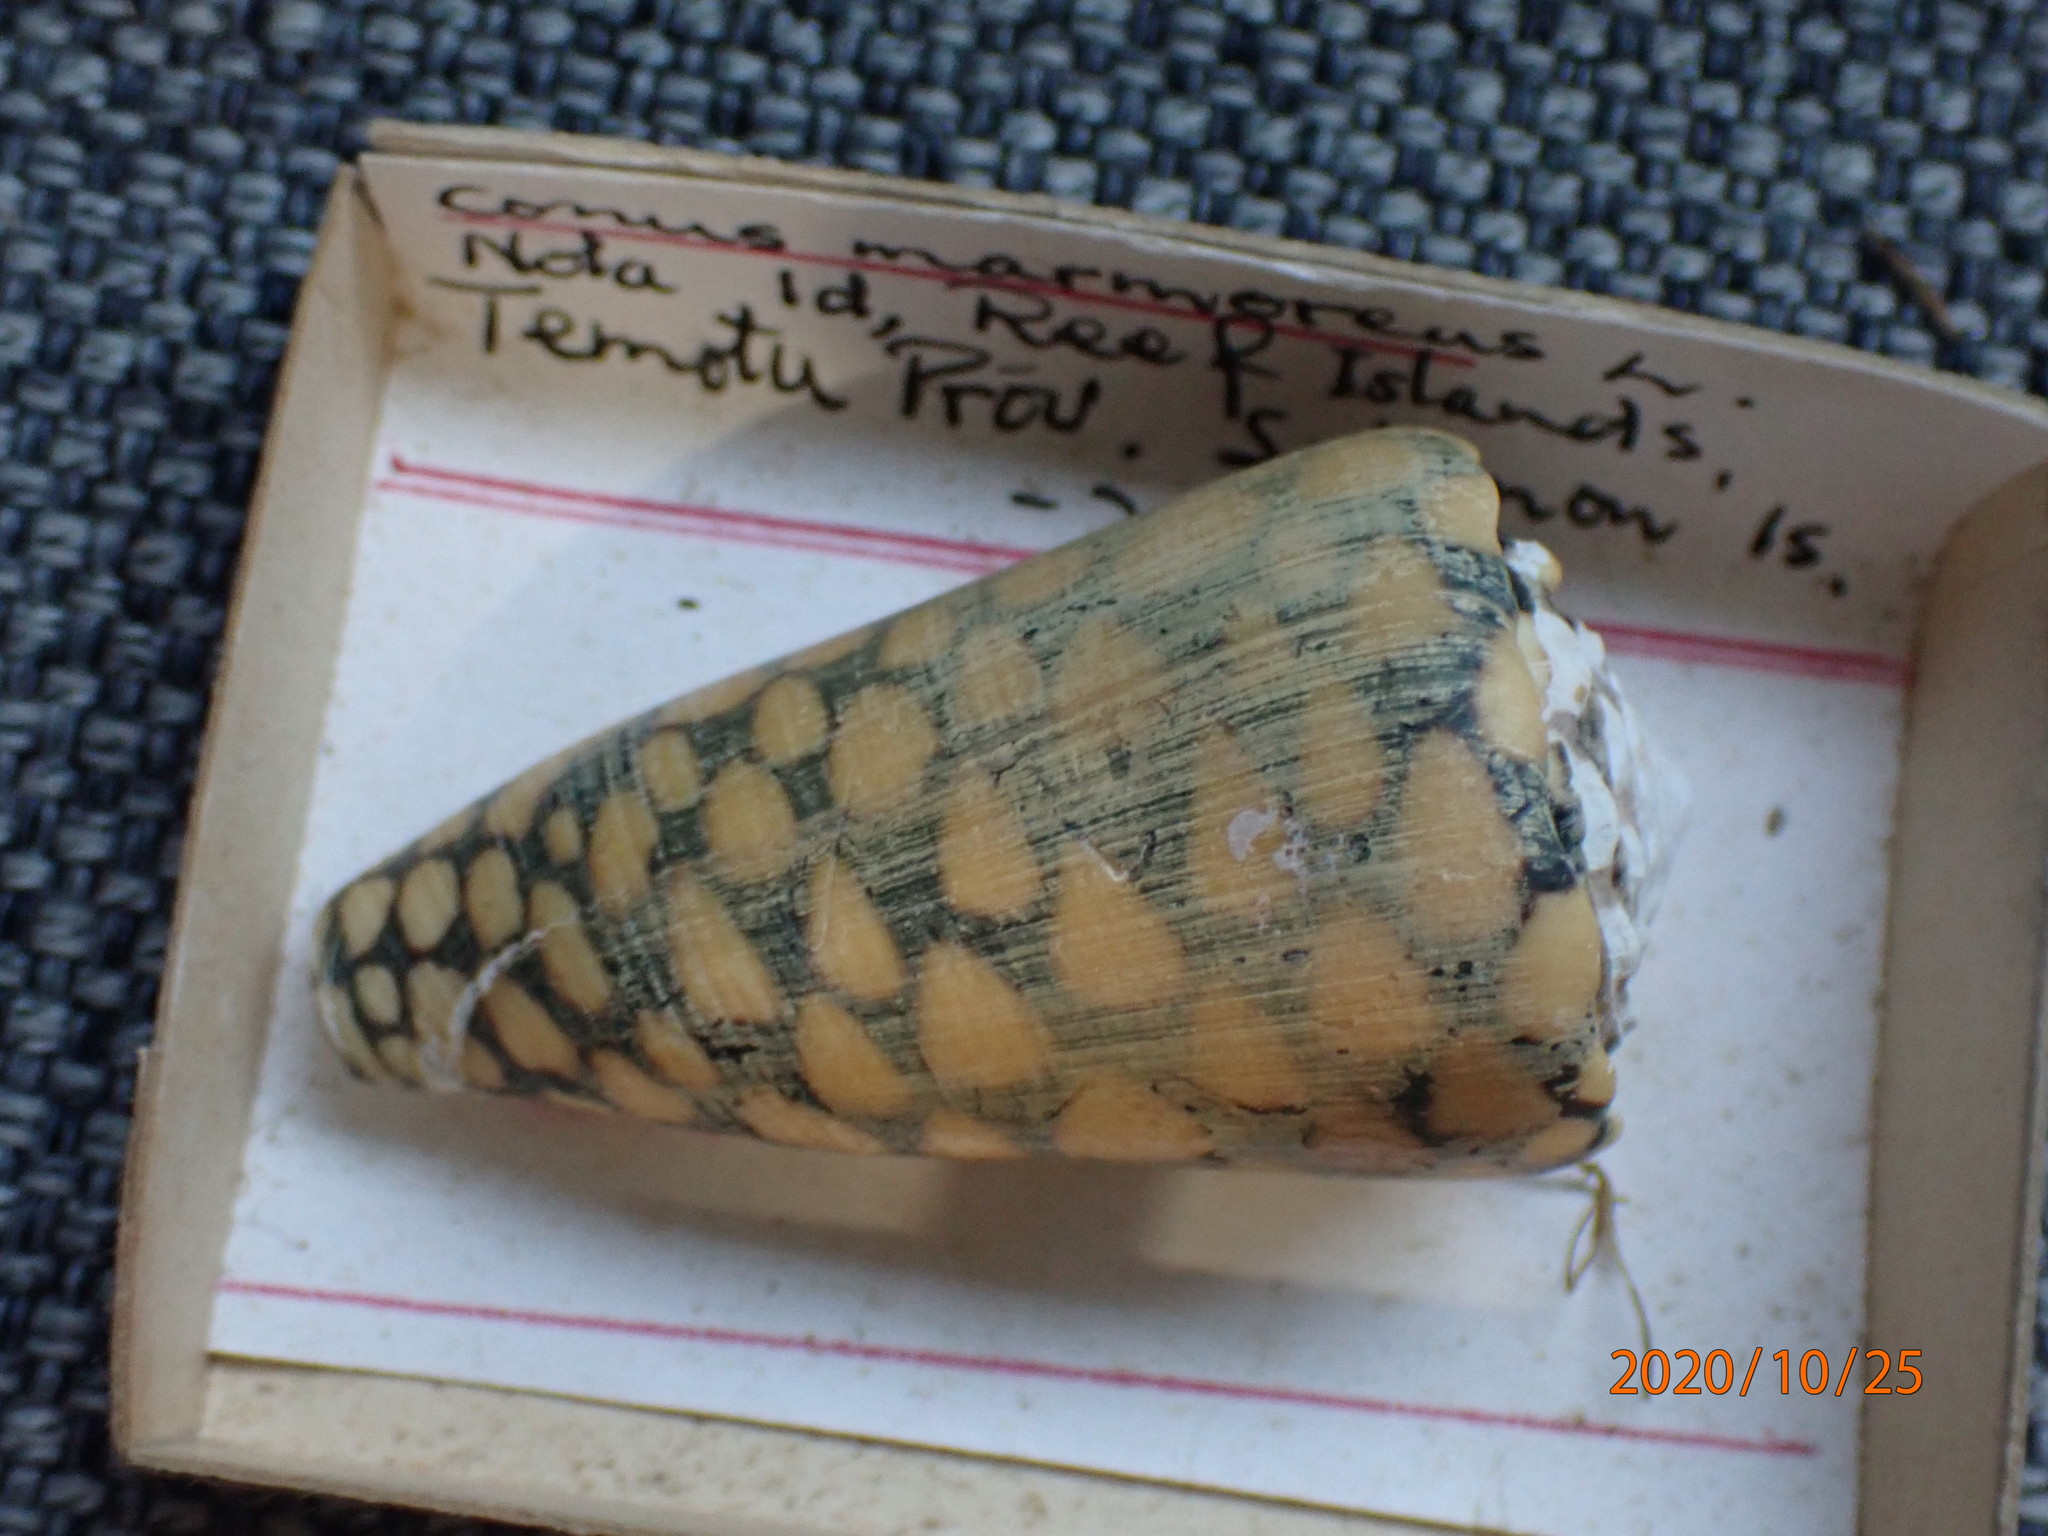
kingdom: Animalia
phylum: Mollusca
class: Gastropoda
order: Neogastropoda
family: Conidae
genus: Conus
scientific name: Conus marmoreus
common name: Marbled cone
